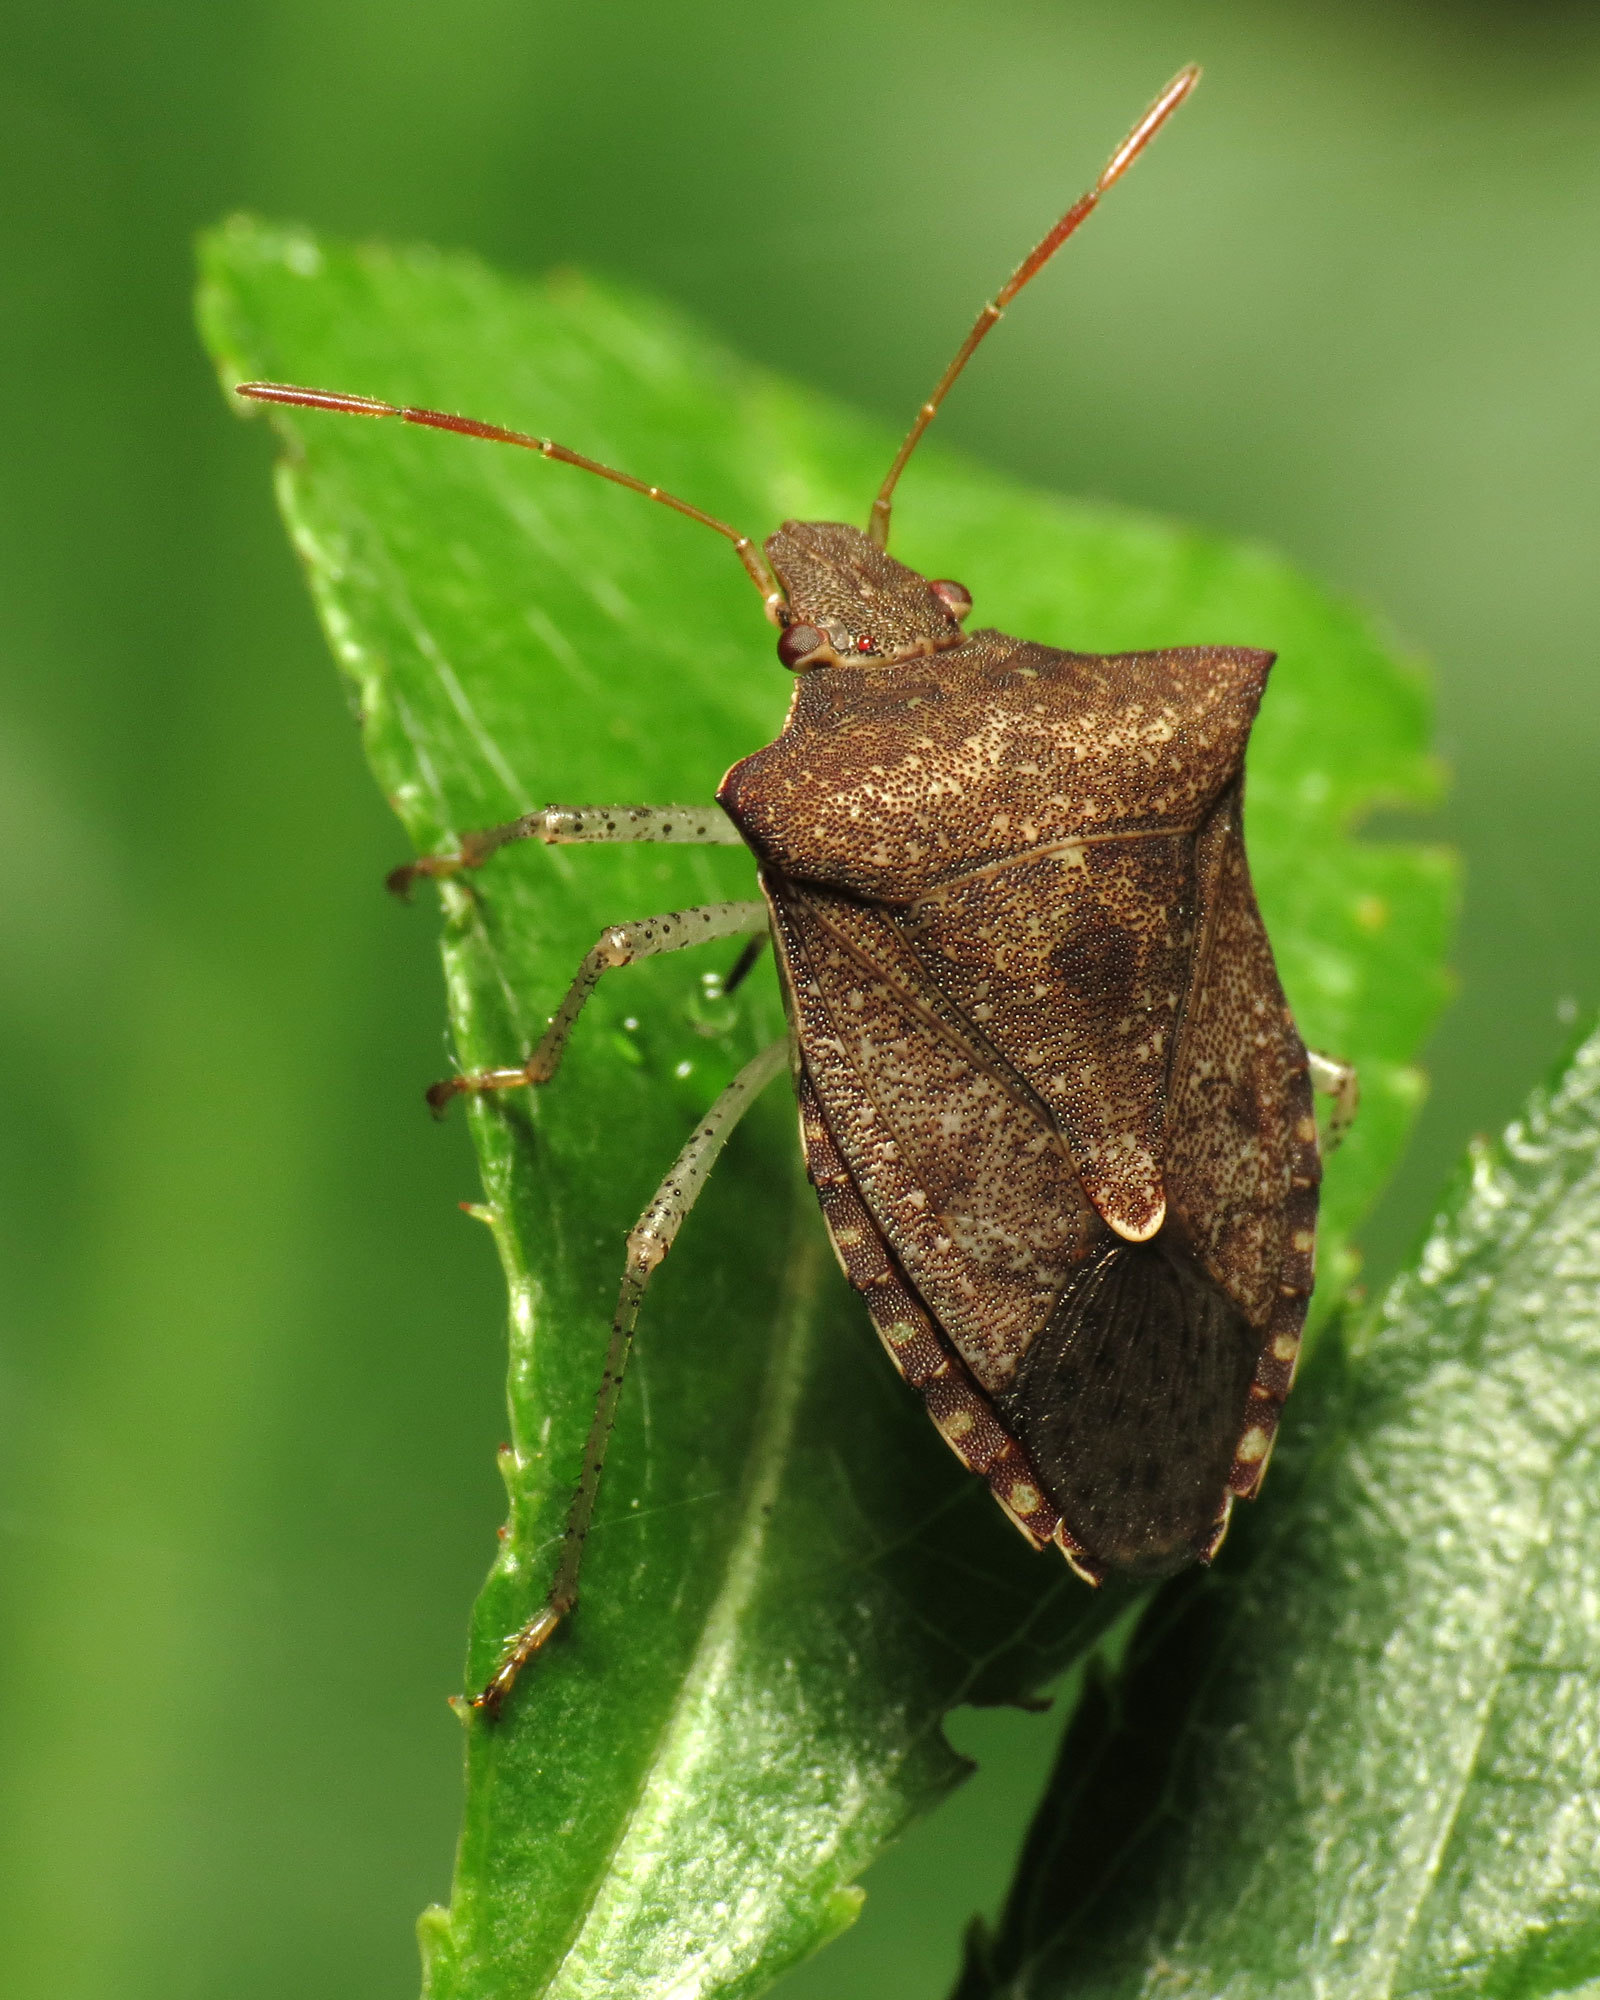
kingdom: Animalia
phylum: Arthropoda
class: Insecta
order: Hemiptera
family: Pentatomidae
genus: Euschistus
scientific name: Euschistus tristigmus
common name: Dusky stink bug
